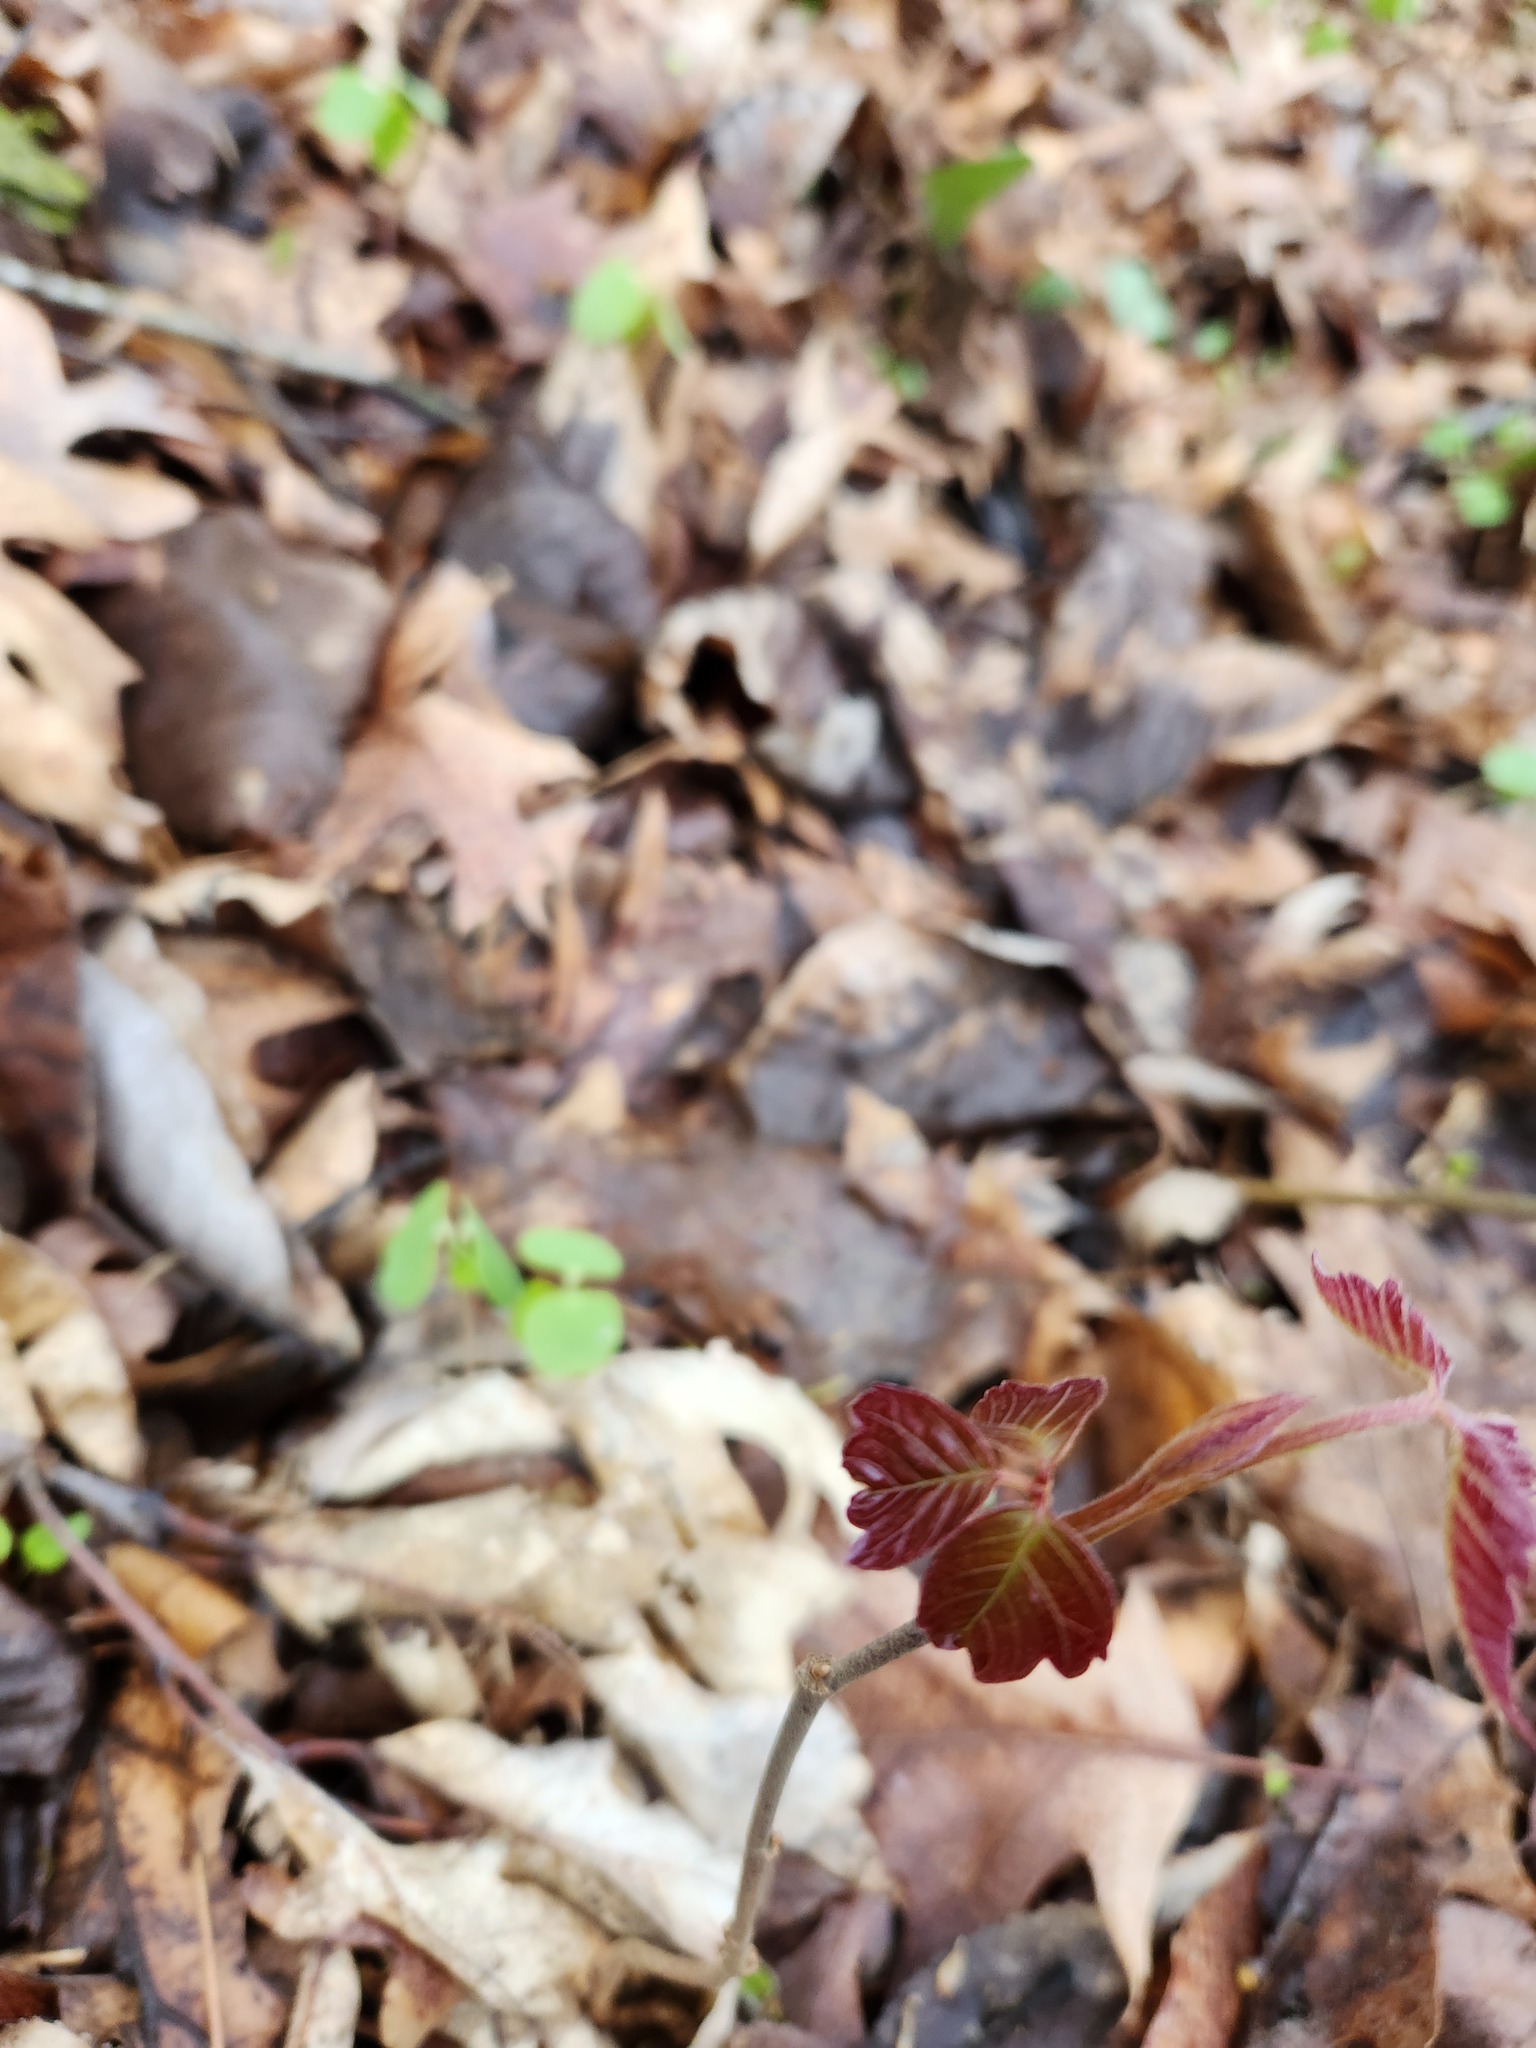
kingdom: Plantae
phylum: Tracheophyta
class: Magnoliopsida
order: Sapindales
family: Anacardiaceae
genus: Toxicodendron
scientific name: Toxicodendron radicans
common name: Poison ivy
